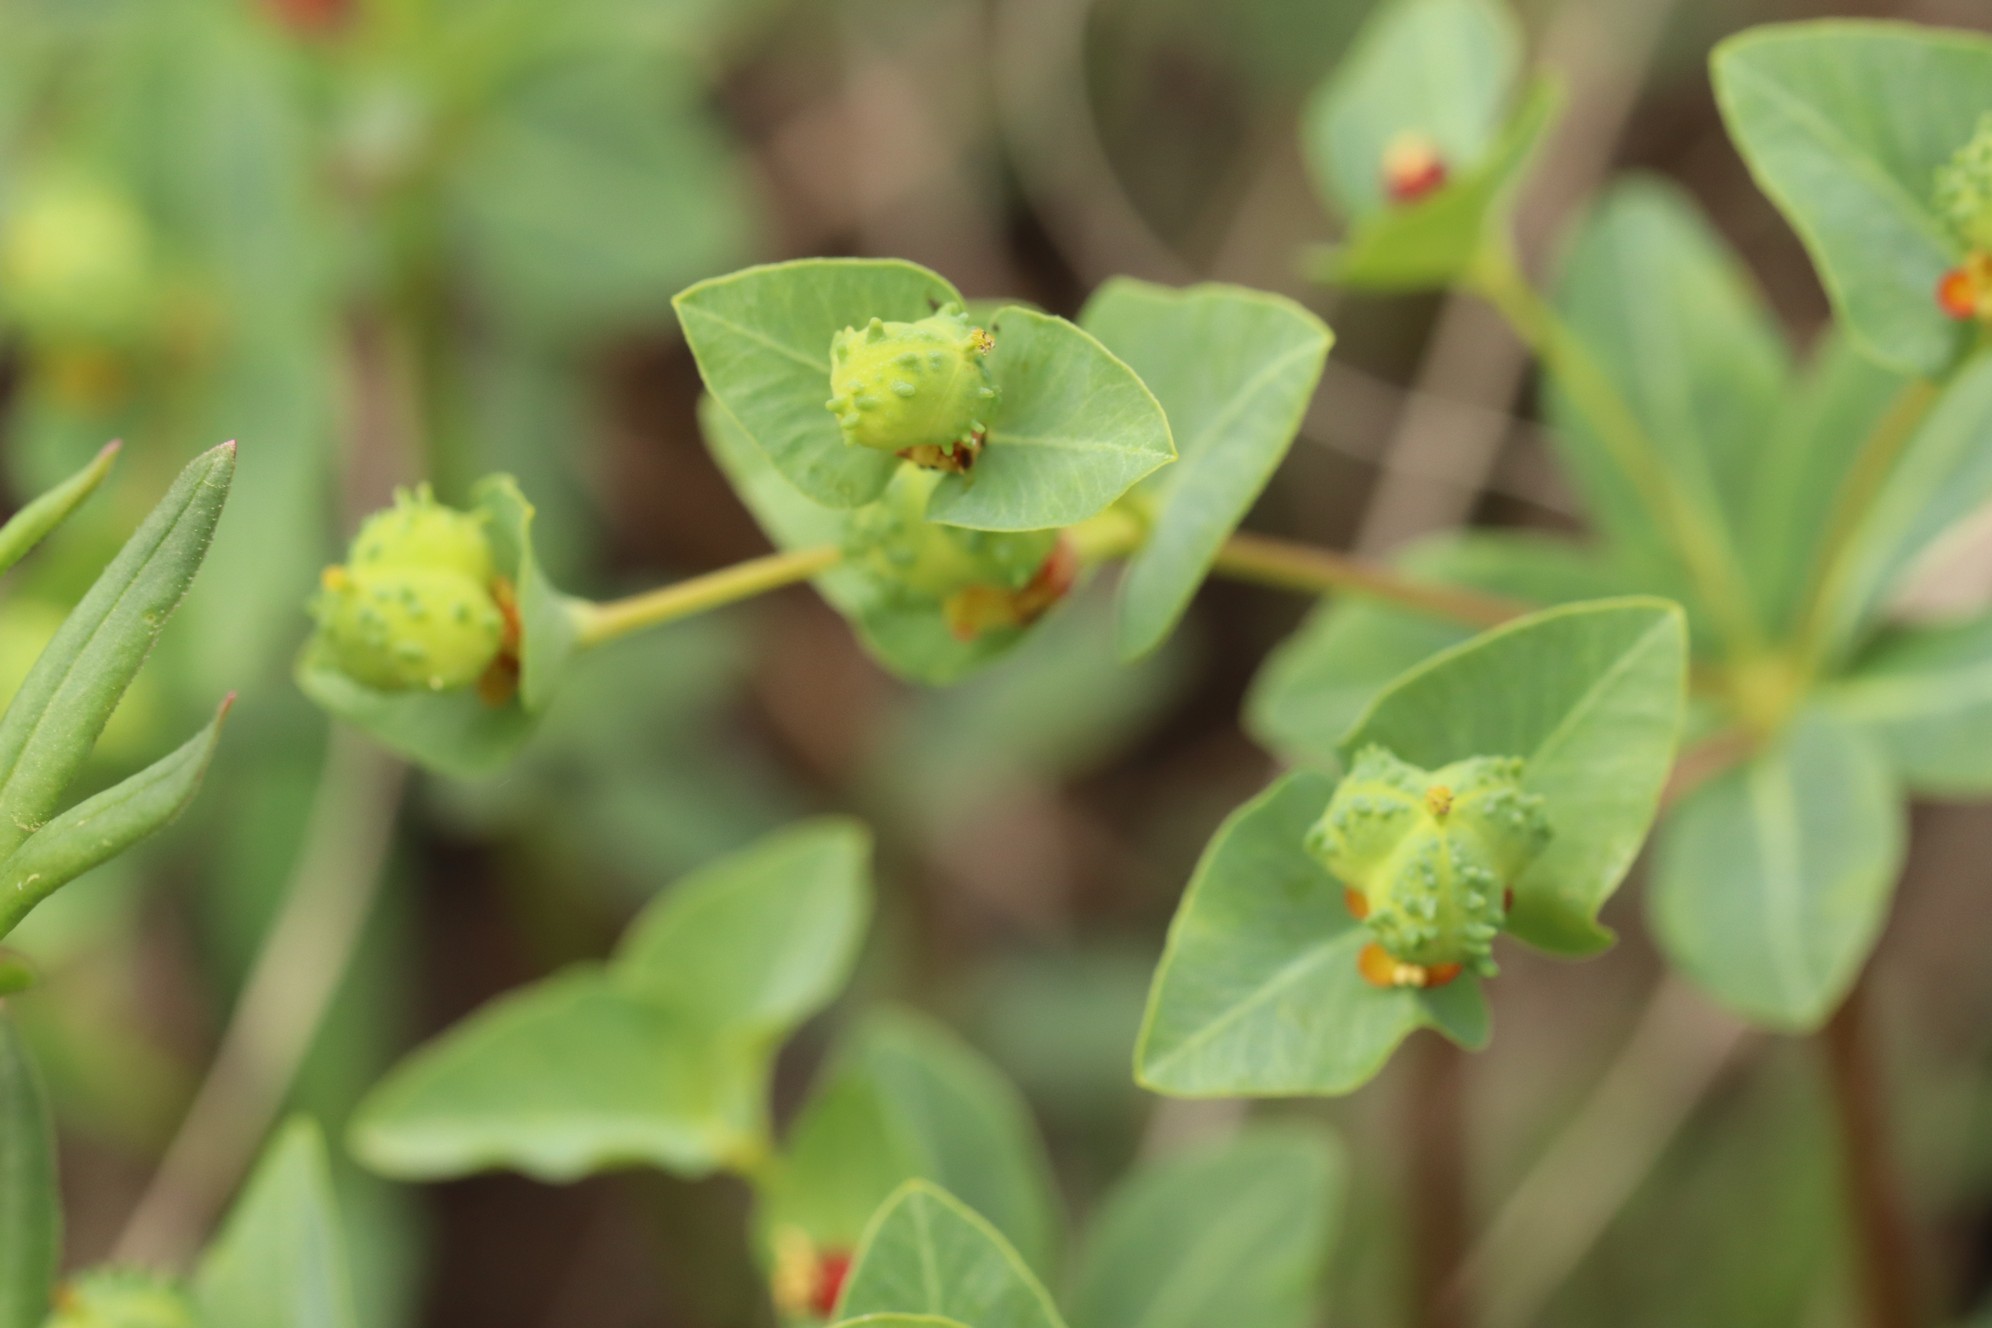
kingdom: Plantae
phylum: Tracheophyta
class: Magnoliopsida
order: Malpighiales
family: Euphorbiaceae
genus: Euphorbia
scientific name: Euphorbia altaica
